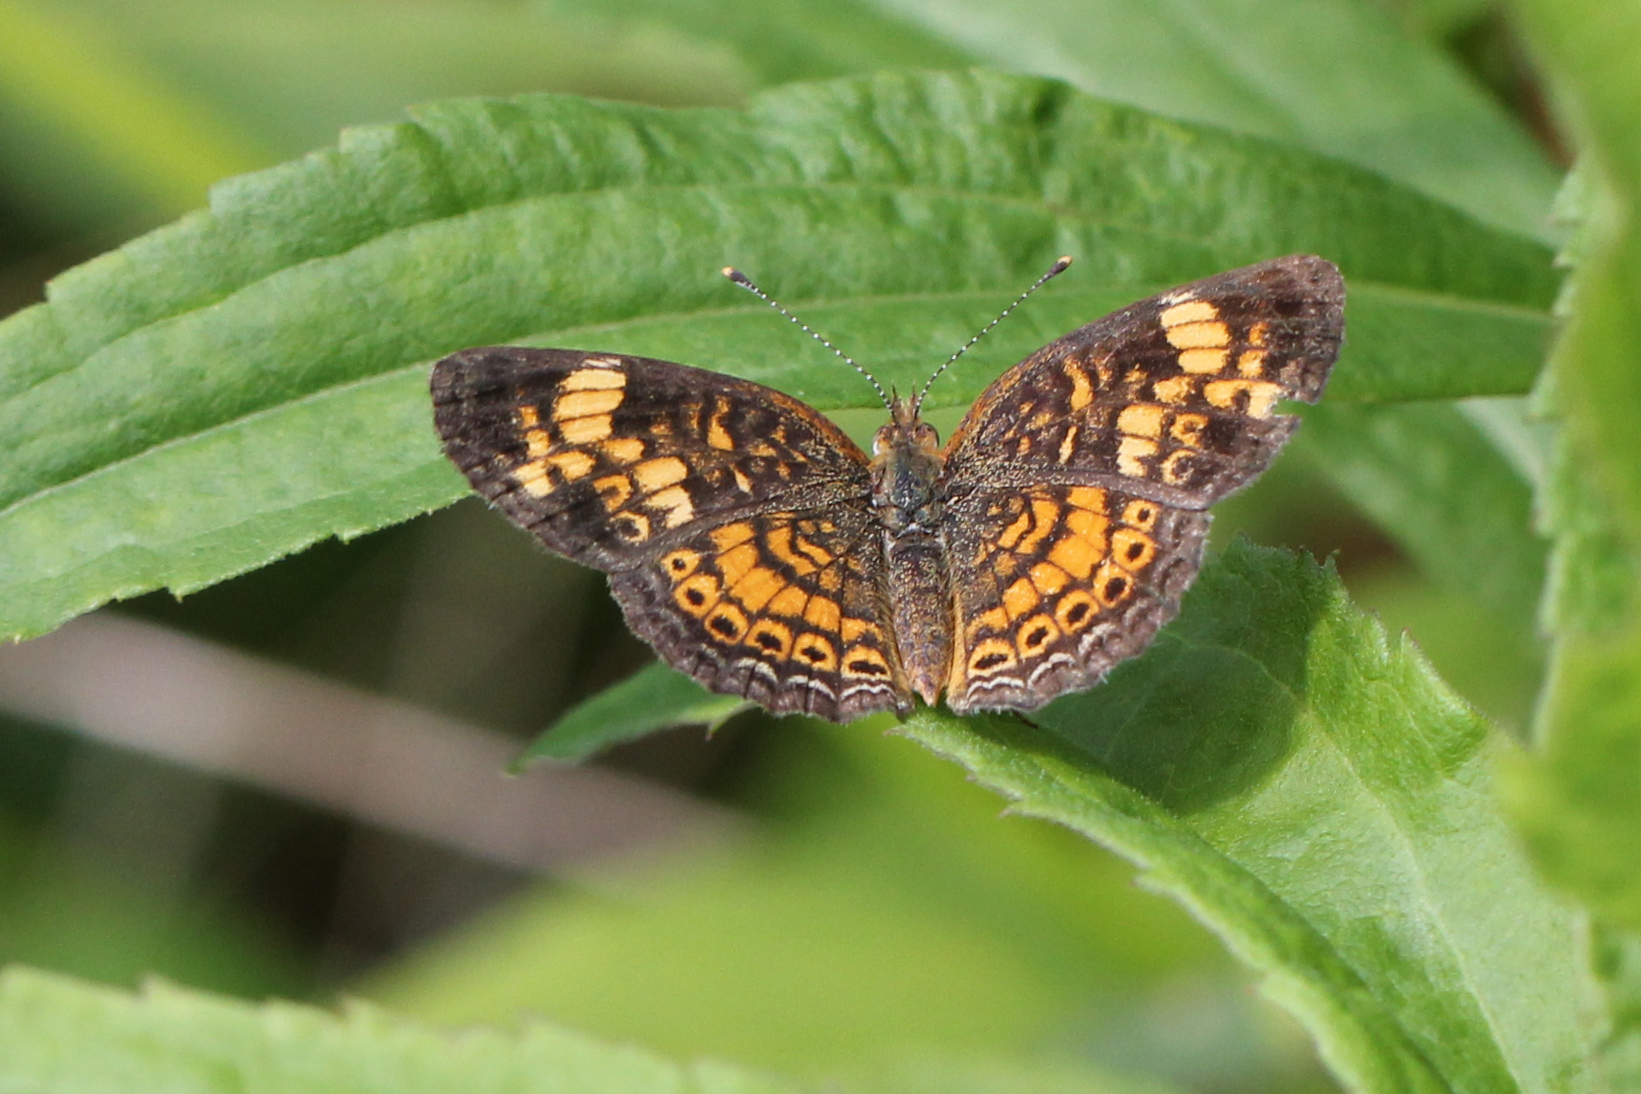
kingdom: Animalia
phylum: Arthropoda
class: Insecta
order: Lepidoptera
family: Nymphalidae
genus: Phyciodes
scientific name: Phyciodes tharos
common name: Pearl crescent
